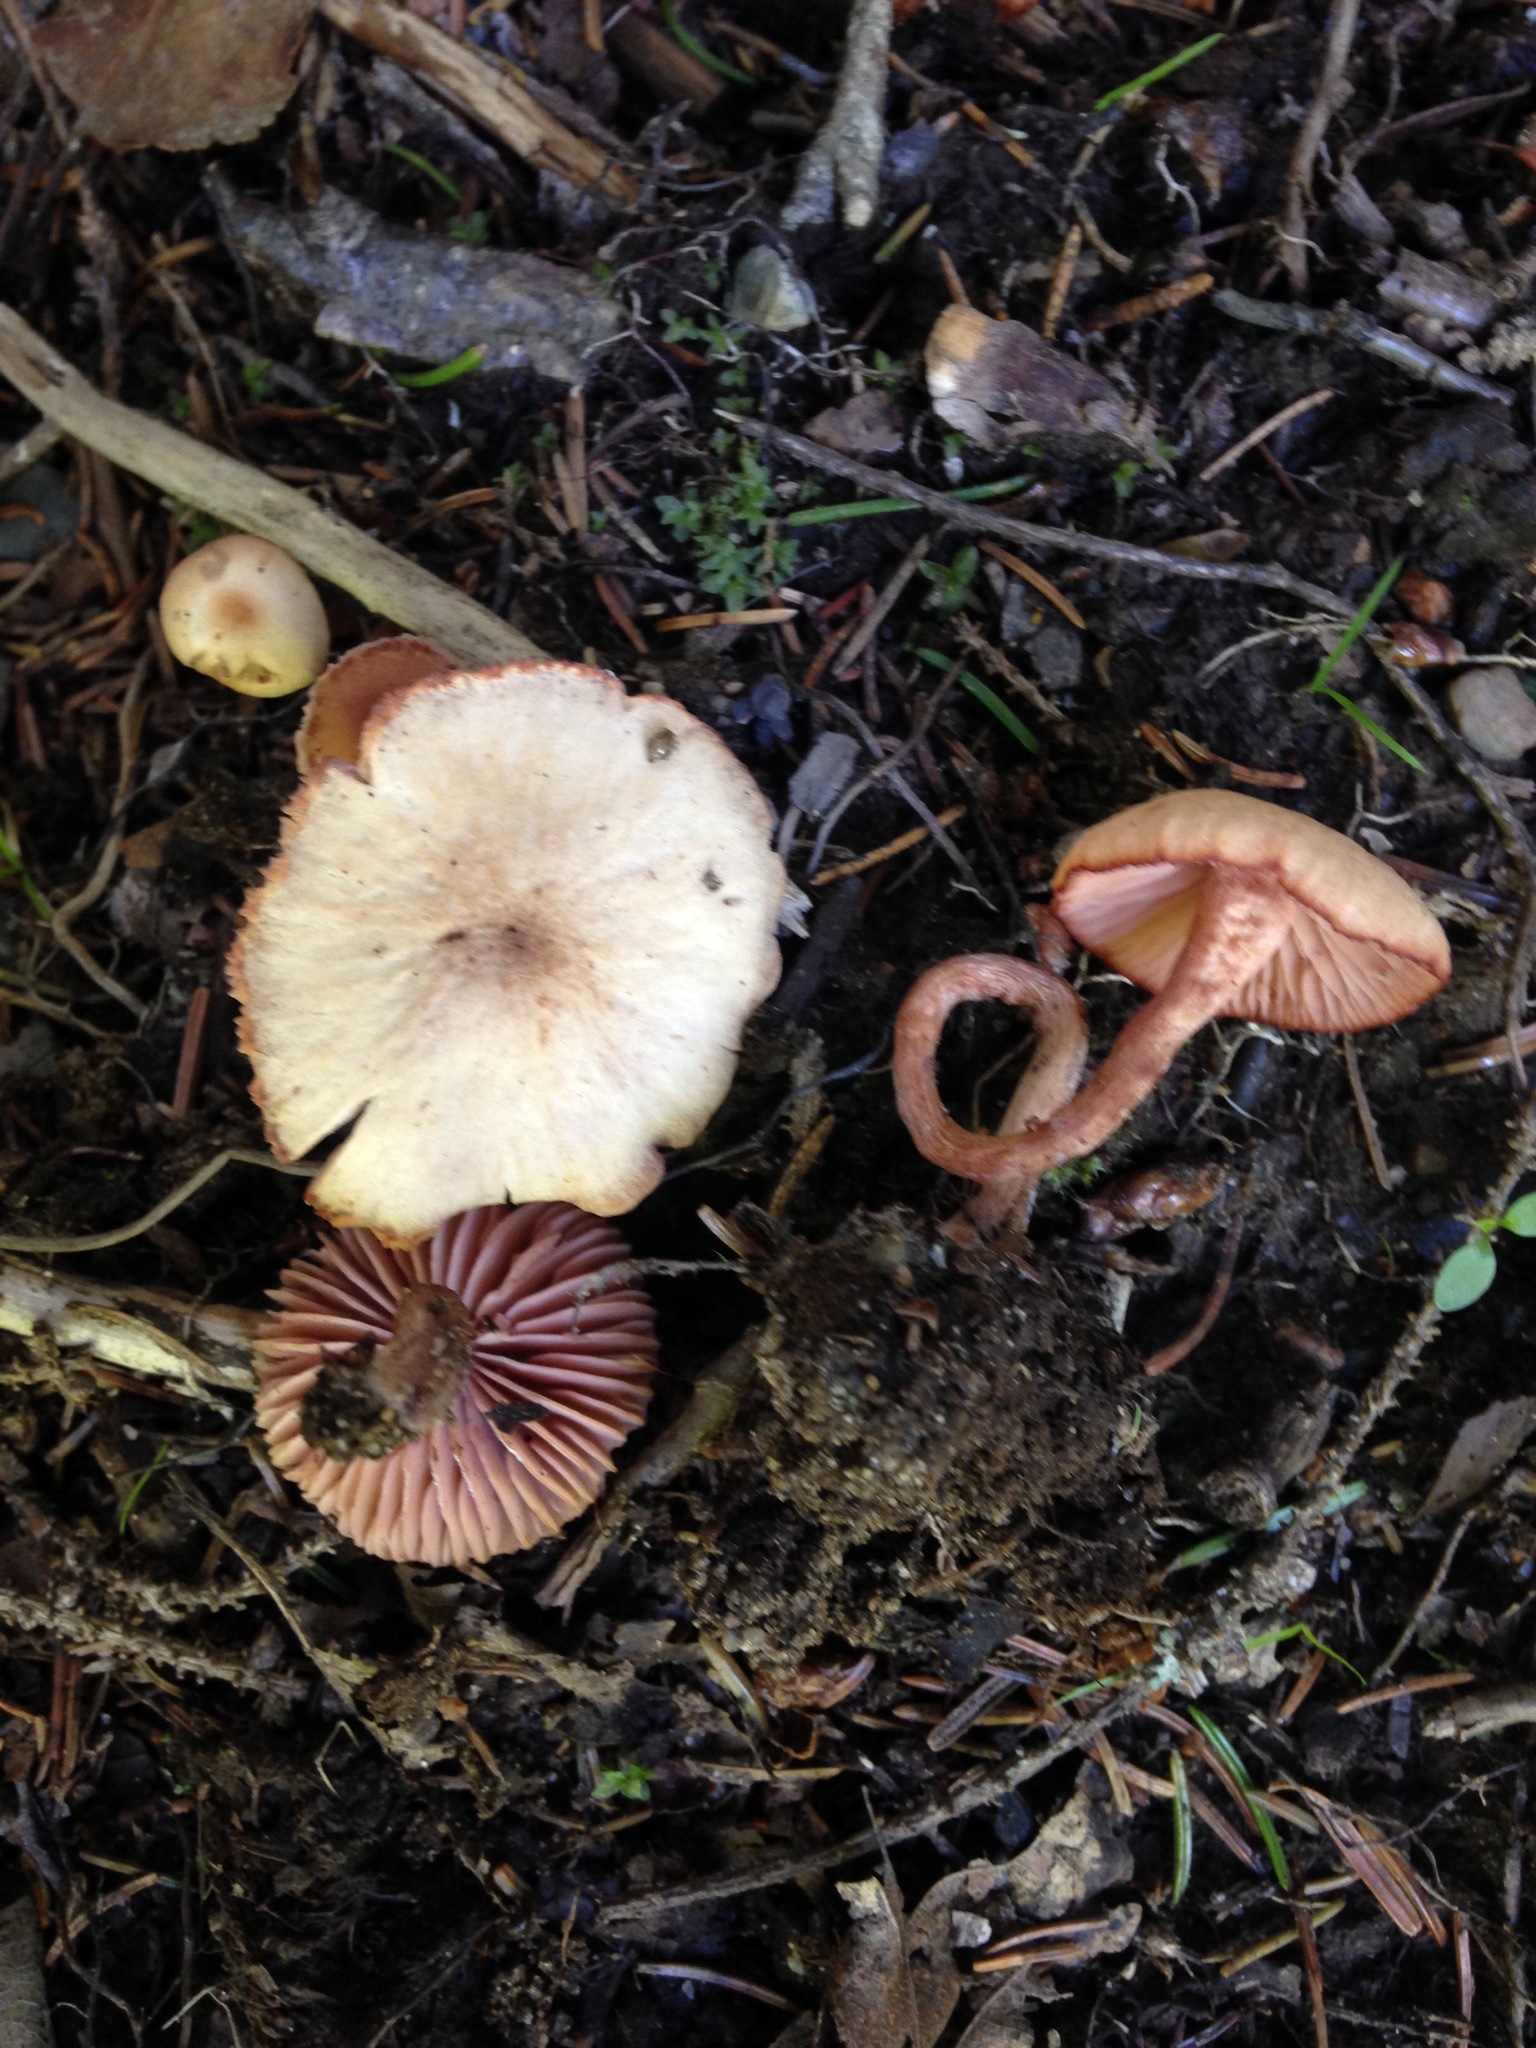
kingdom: Fungi
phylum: Basidiomycota
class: Agaricomycetes
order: Agaricales
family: Hydnangiaceae
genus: Laccaria
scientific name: Laccaria laccata
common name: Deceiver
